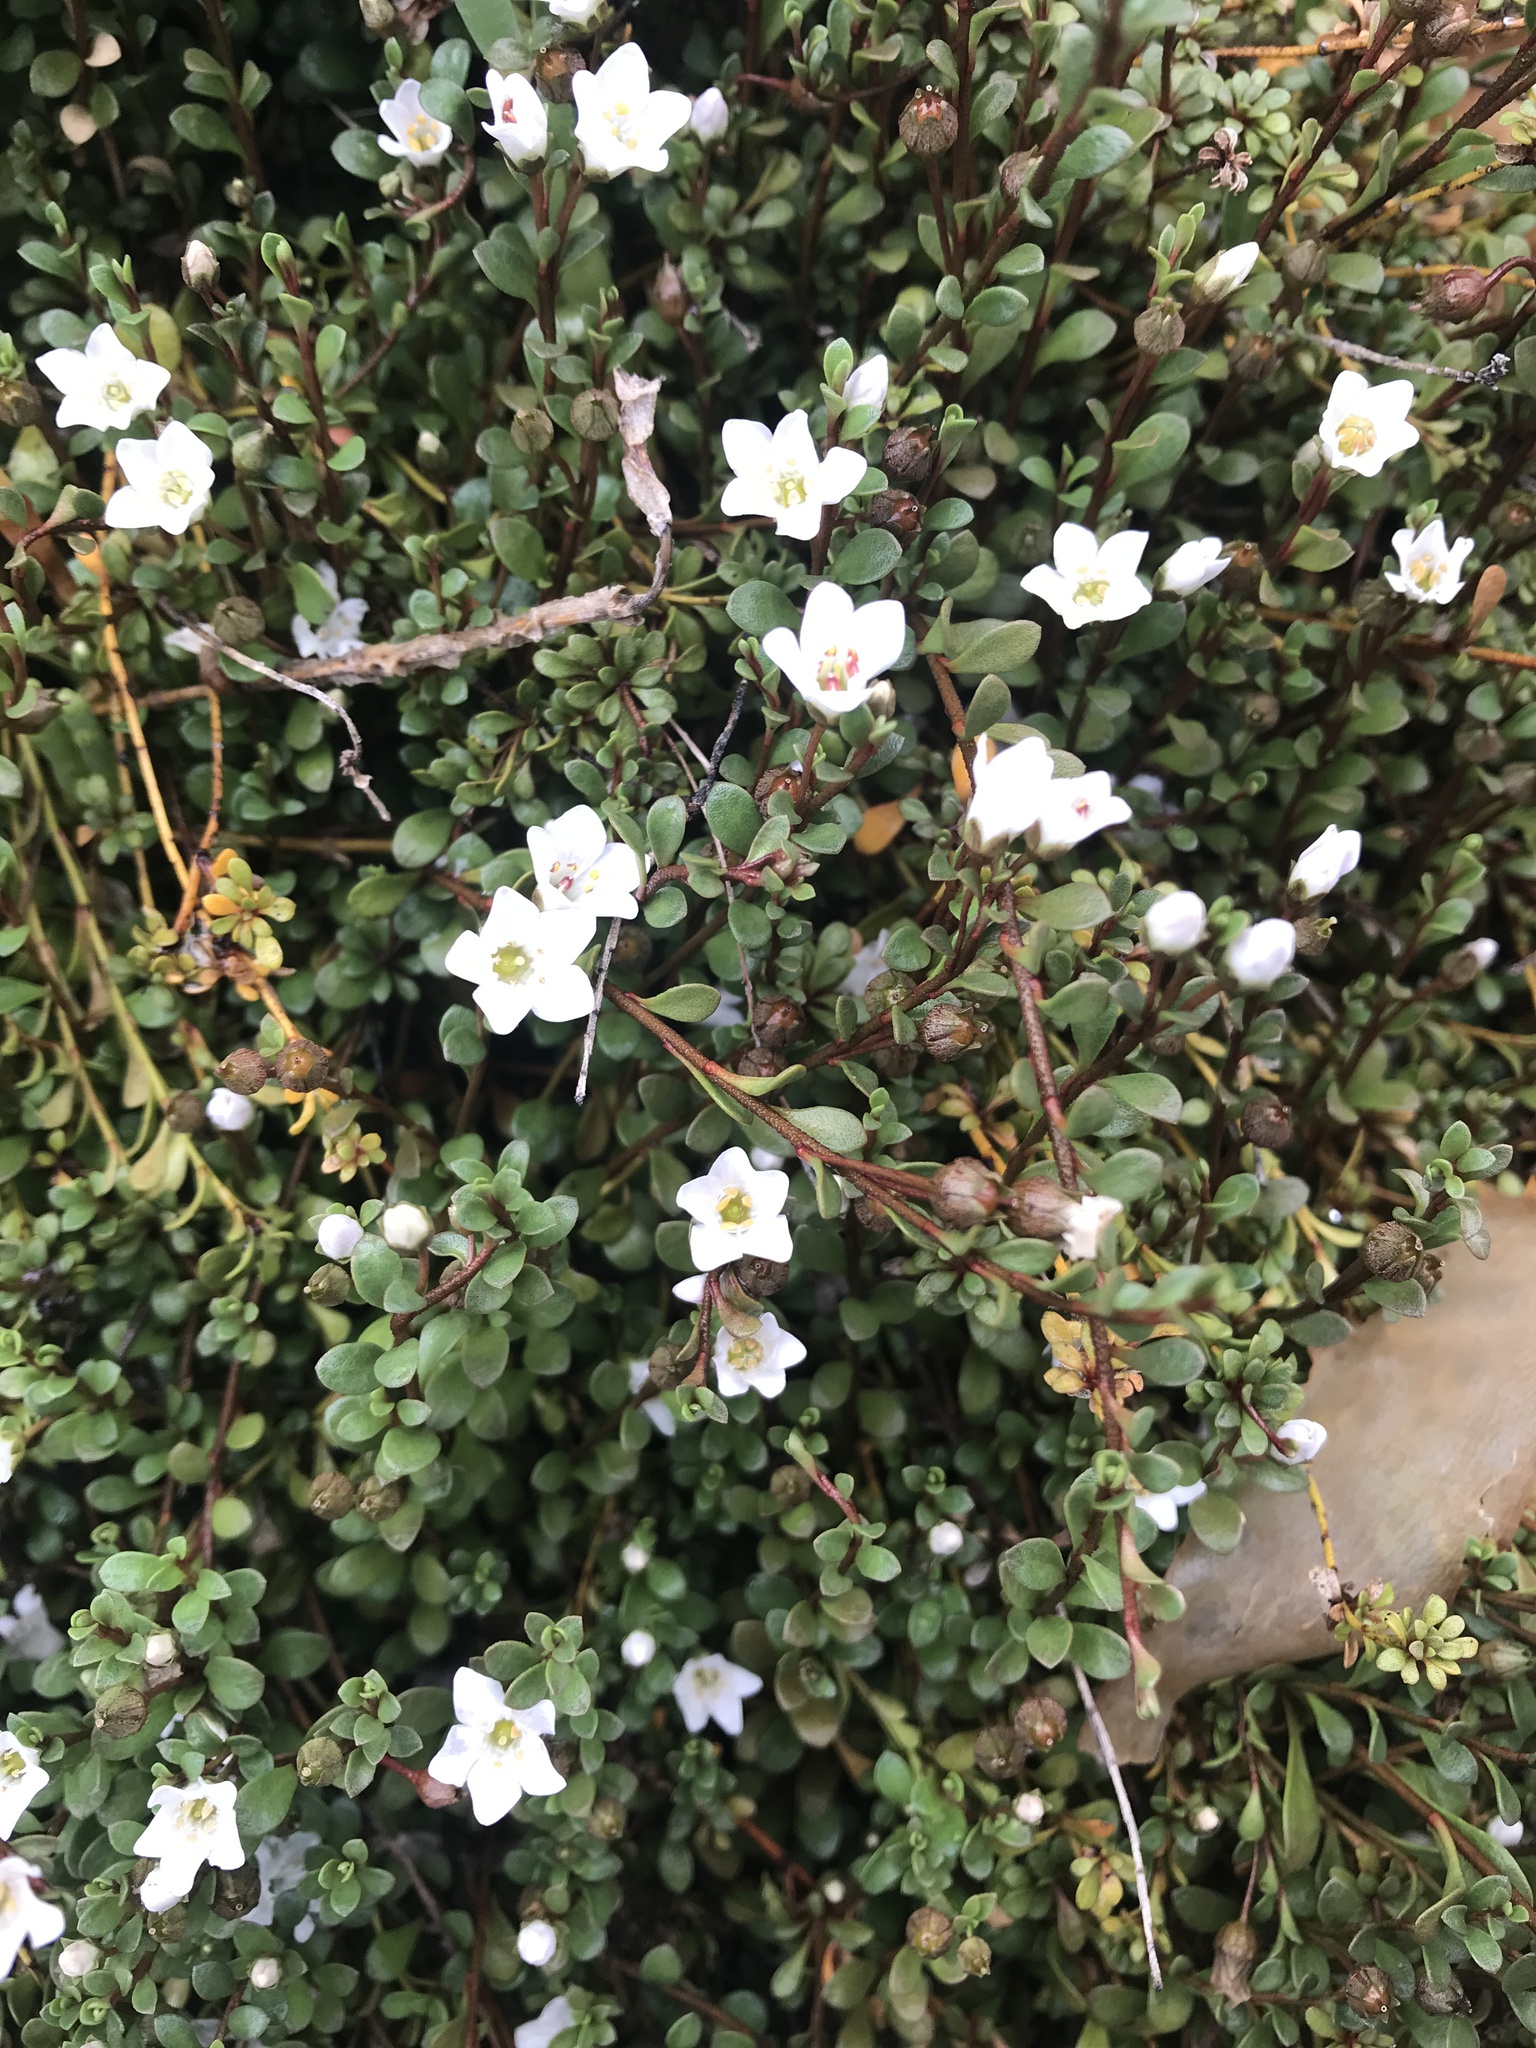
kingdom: Plantae
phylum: Tracheophyta
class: Magnoliopsida
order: Ericales
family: Primulaceae
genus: Samolus
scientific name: Samolus repens
